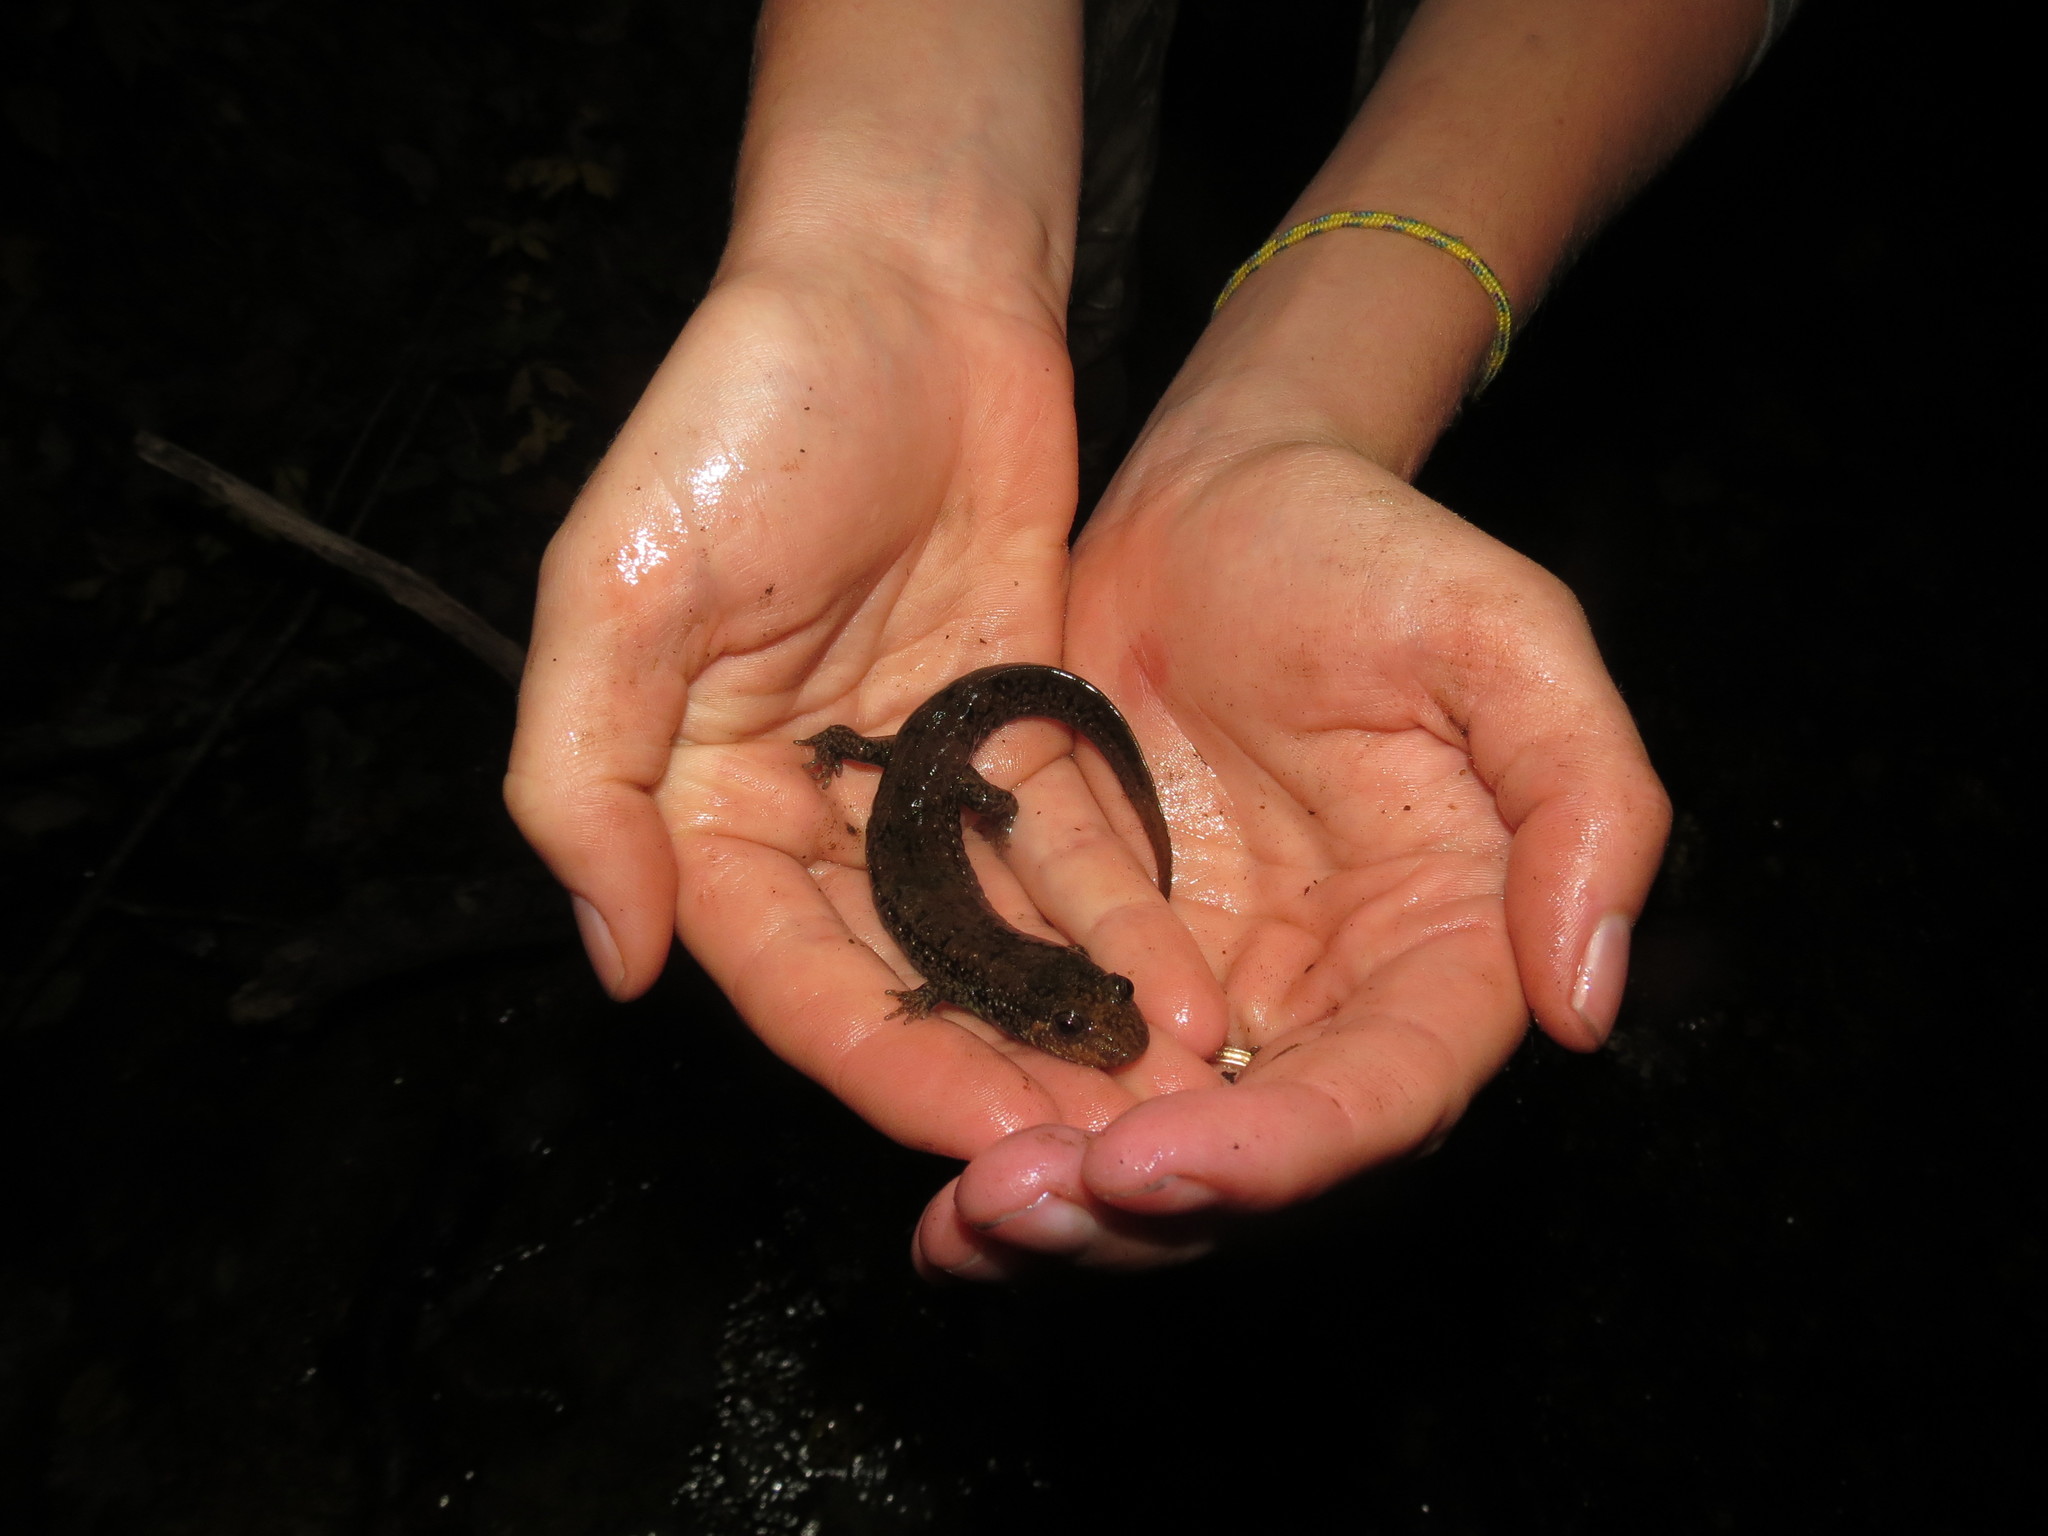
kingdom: Animalia
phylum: Chordata
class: Amphibia
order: Caudata
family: Plethodontidae
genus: Desmognathus
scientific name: Desmognathus
